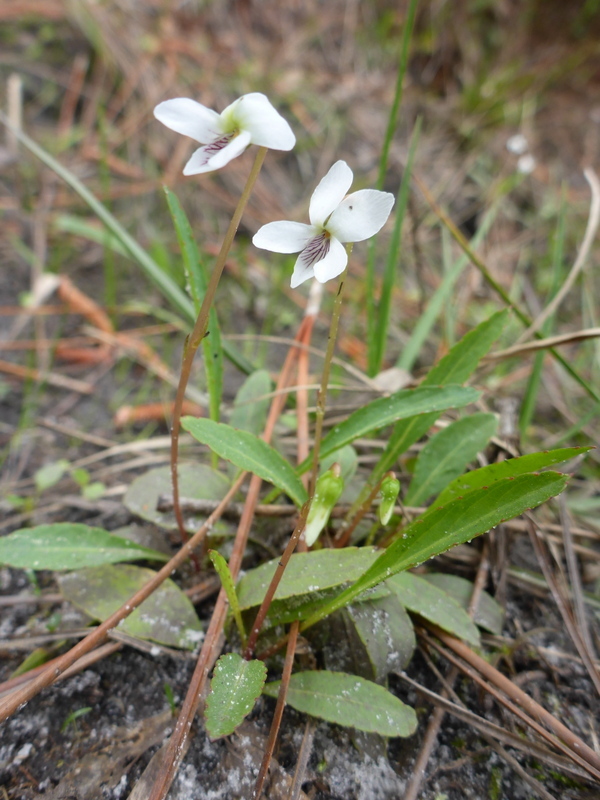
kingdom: Plantae
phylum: Tracheophyta
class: Magnoliopsida
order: Malpighiales
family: Violaceae
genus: Viola
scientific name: Viola lanceolata
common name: Bog white violet
